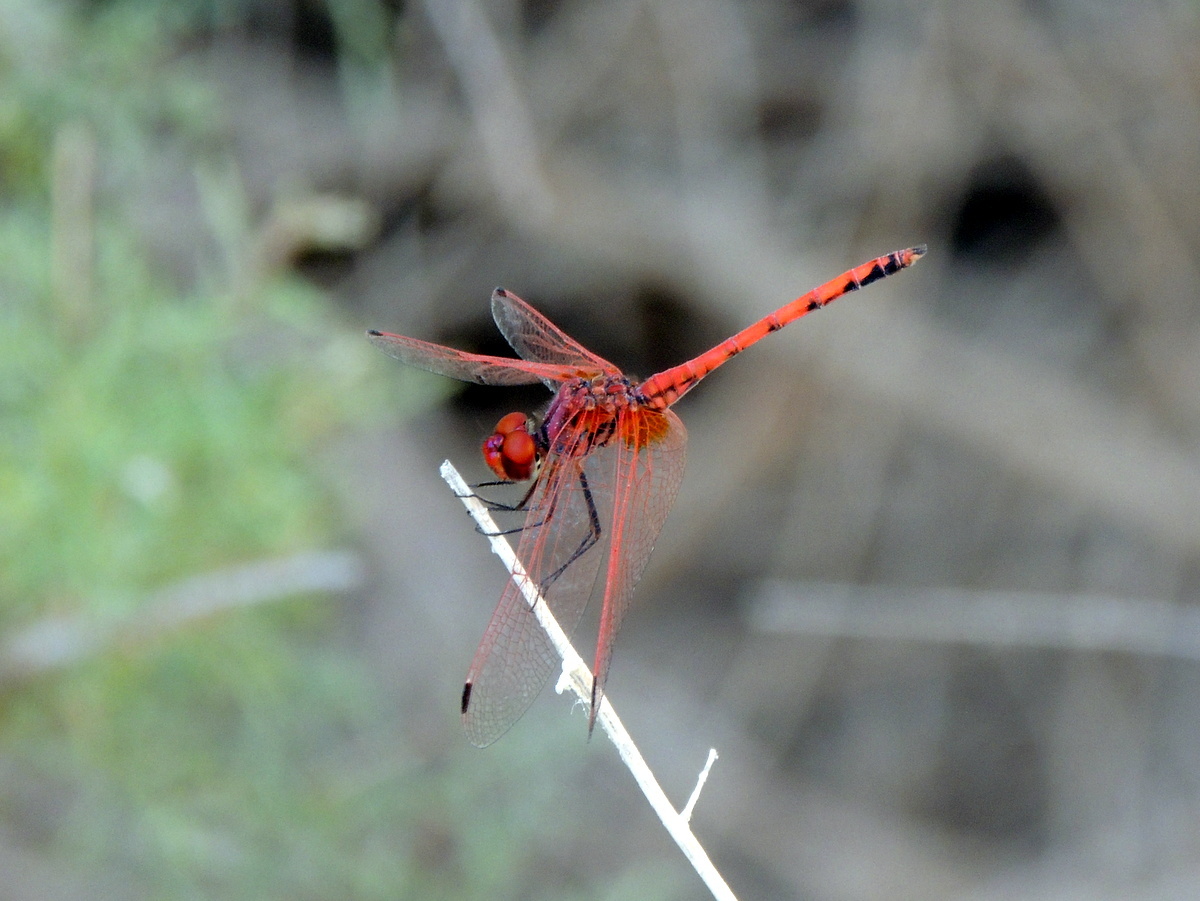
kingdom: Animalia
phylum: Arthropoda
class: Insecta
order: Odonata
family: Libellulidae
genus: Trithemis
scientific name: Trithemis arteriosa
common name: Red-veined dropwing
